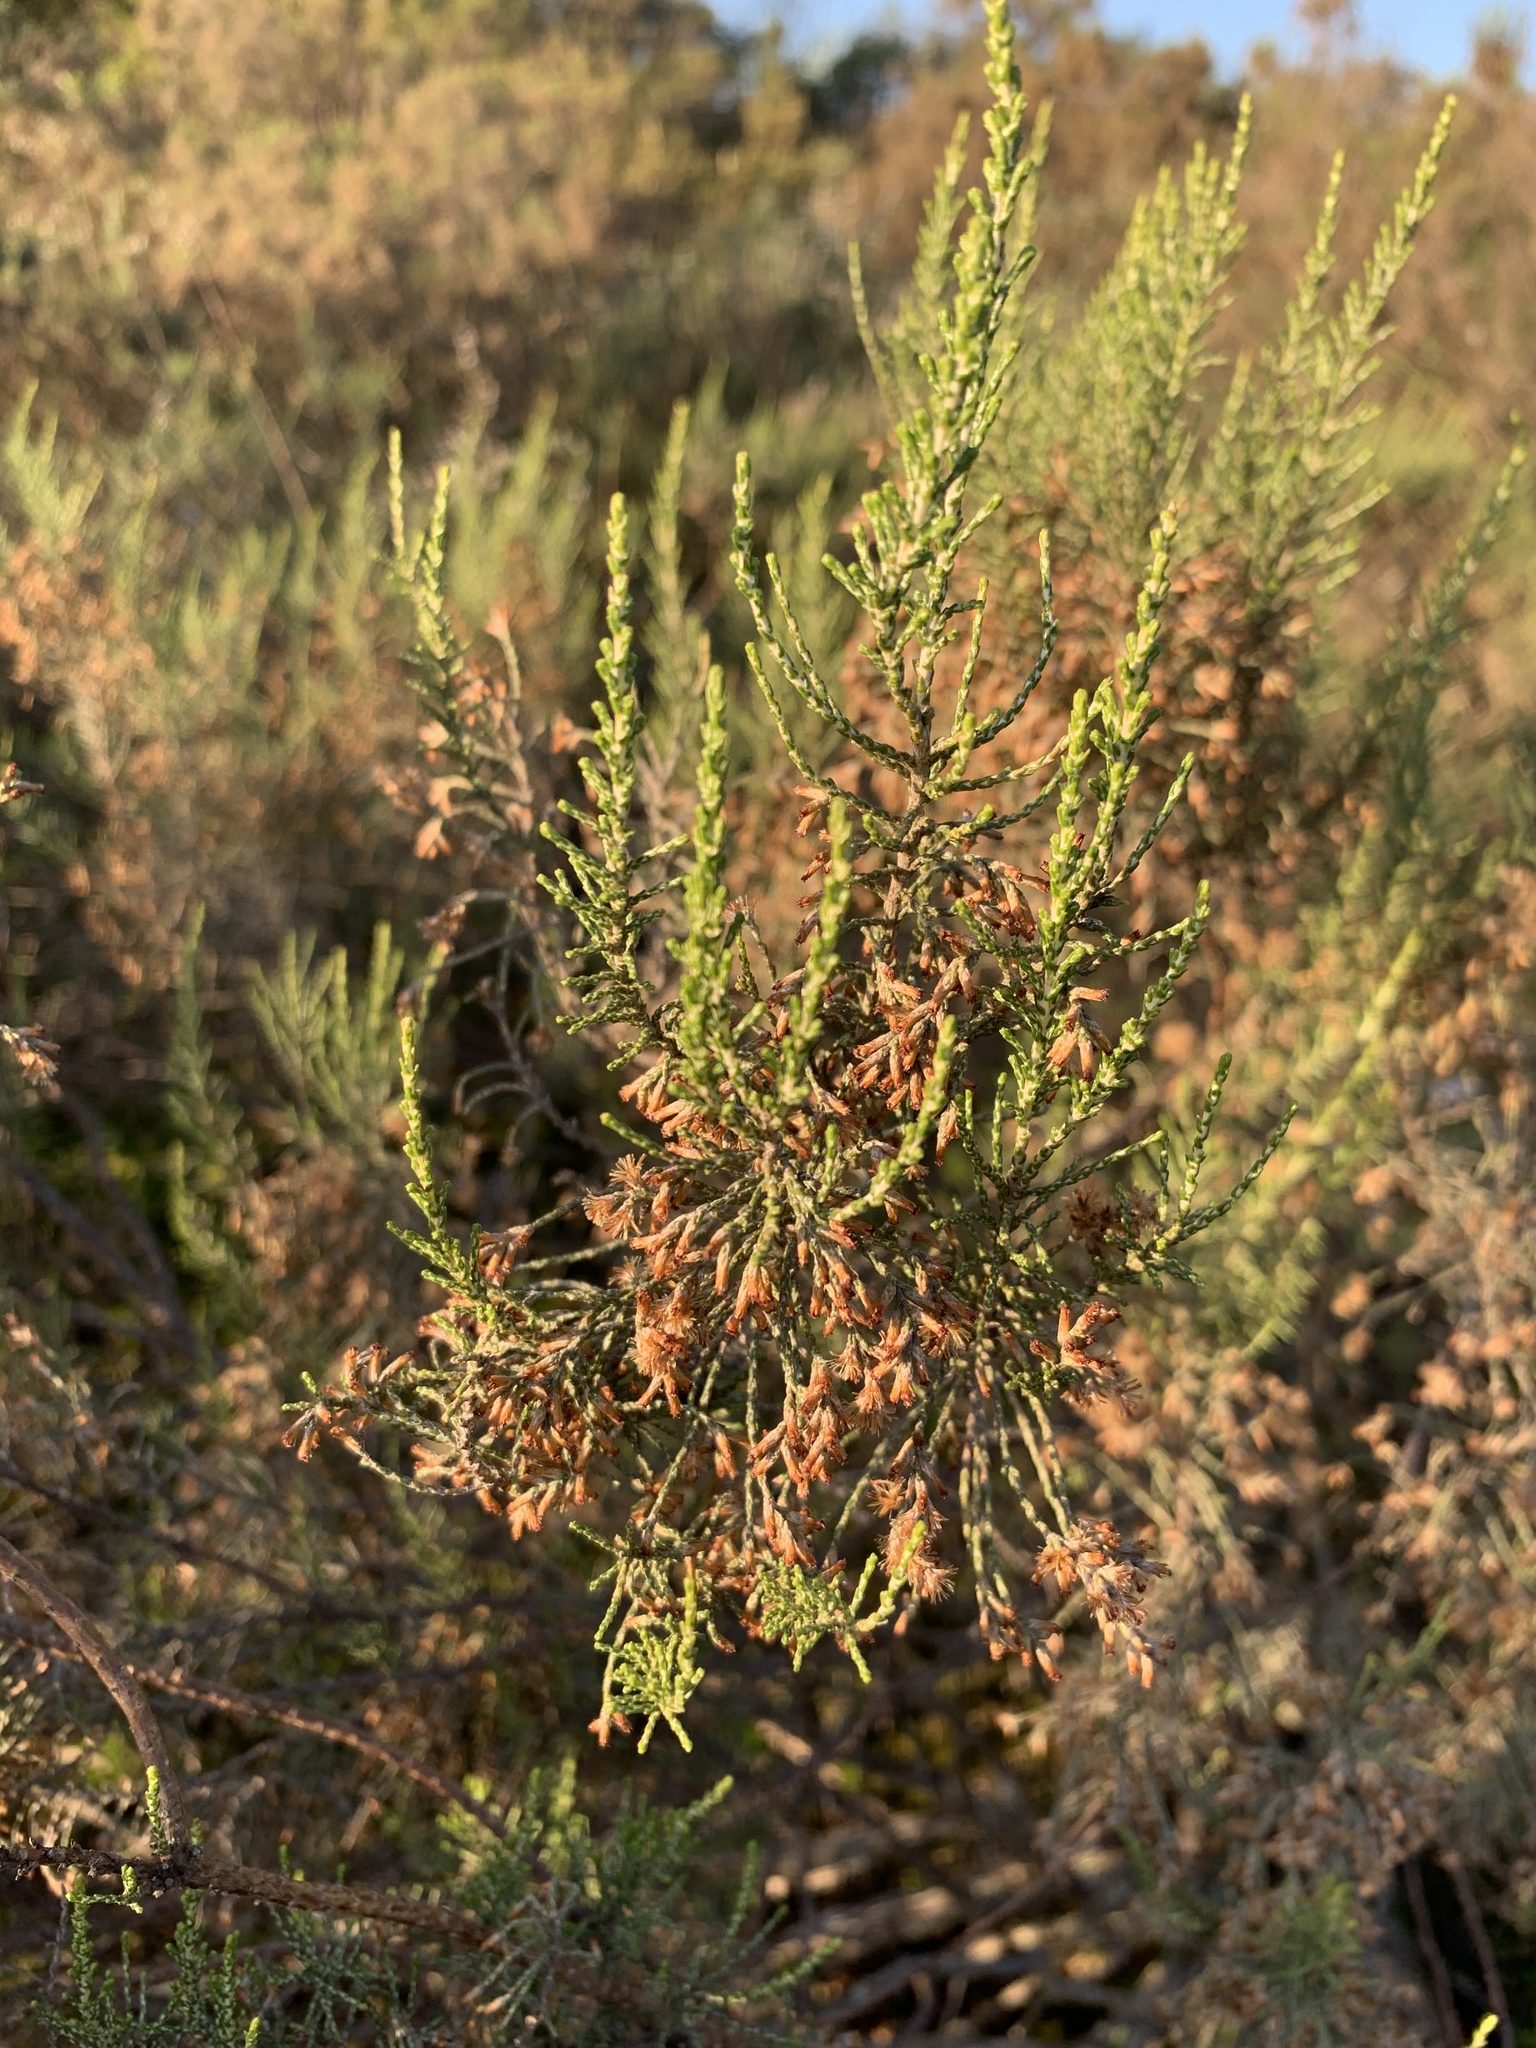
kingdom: Plantae
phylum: Tracheophyta
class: Magnoliopsida
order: Asterales
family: Asteraceae
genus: Dicerothamnus
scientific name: Dicerothamnus rhinocerotis
